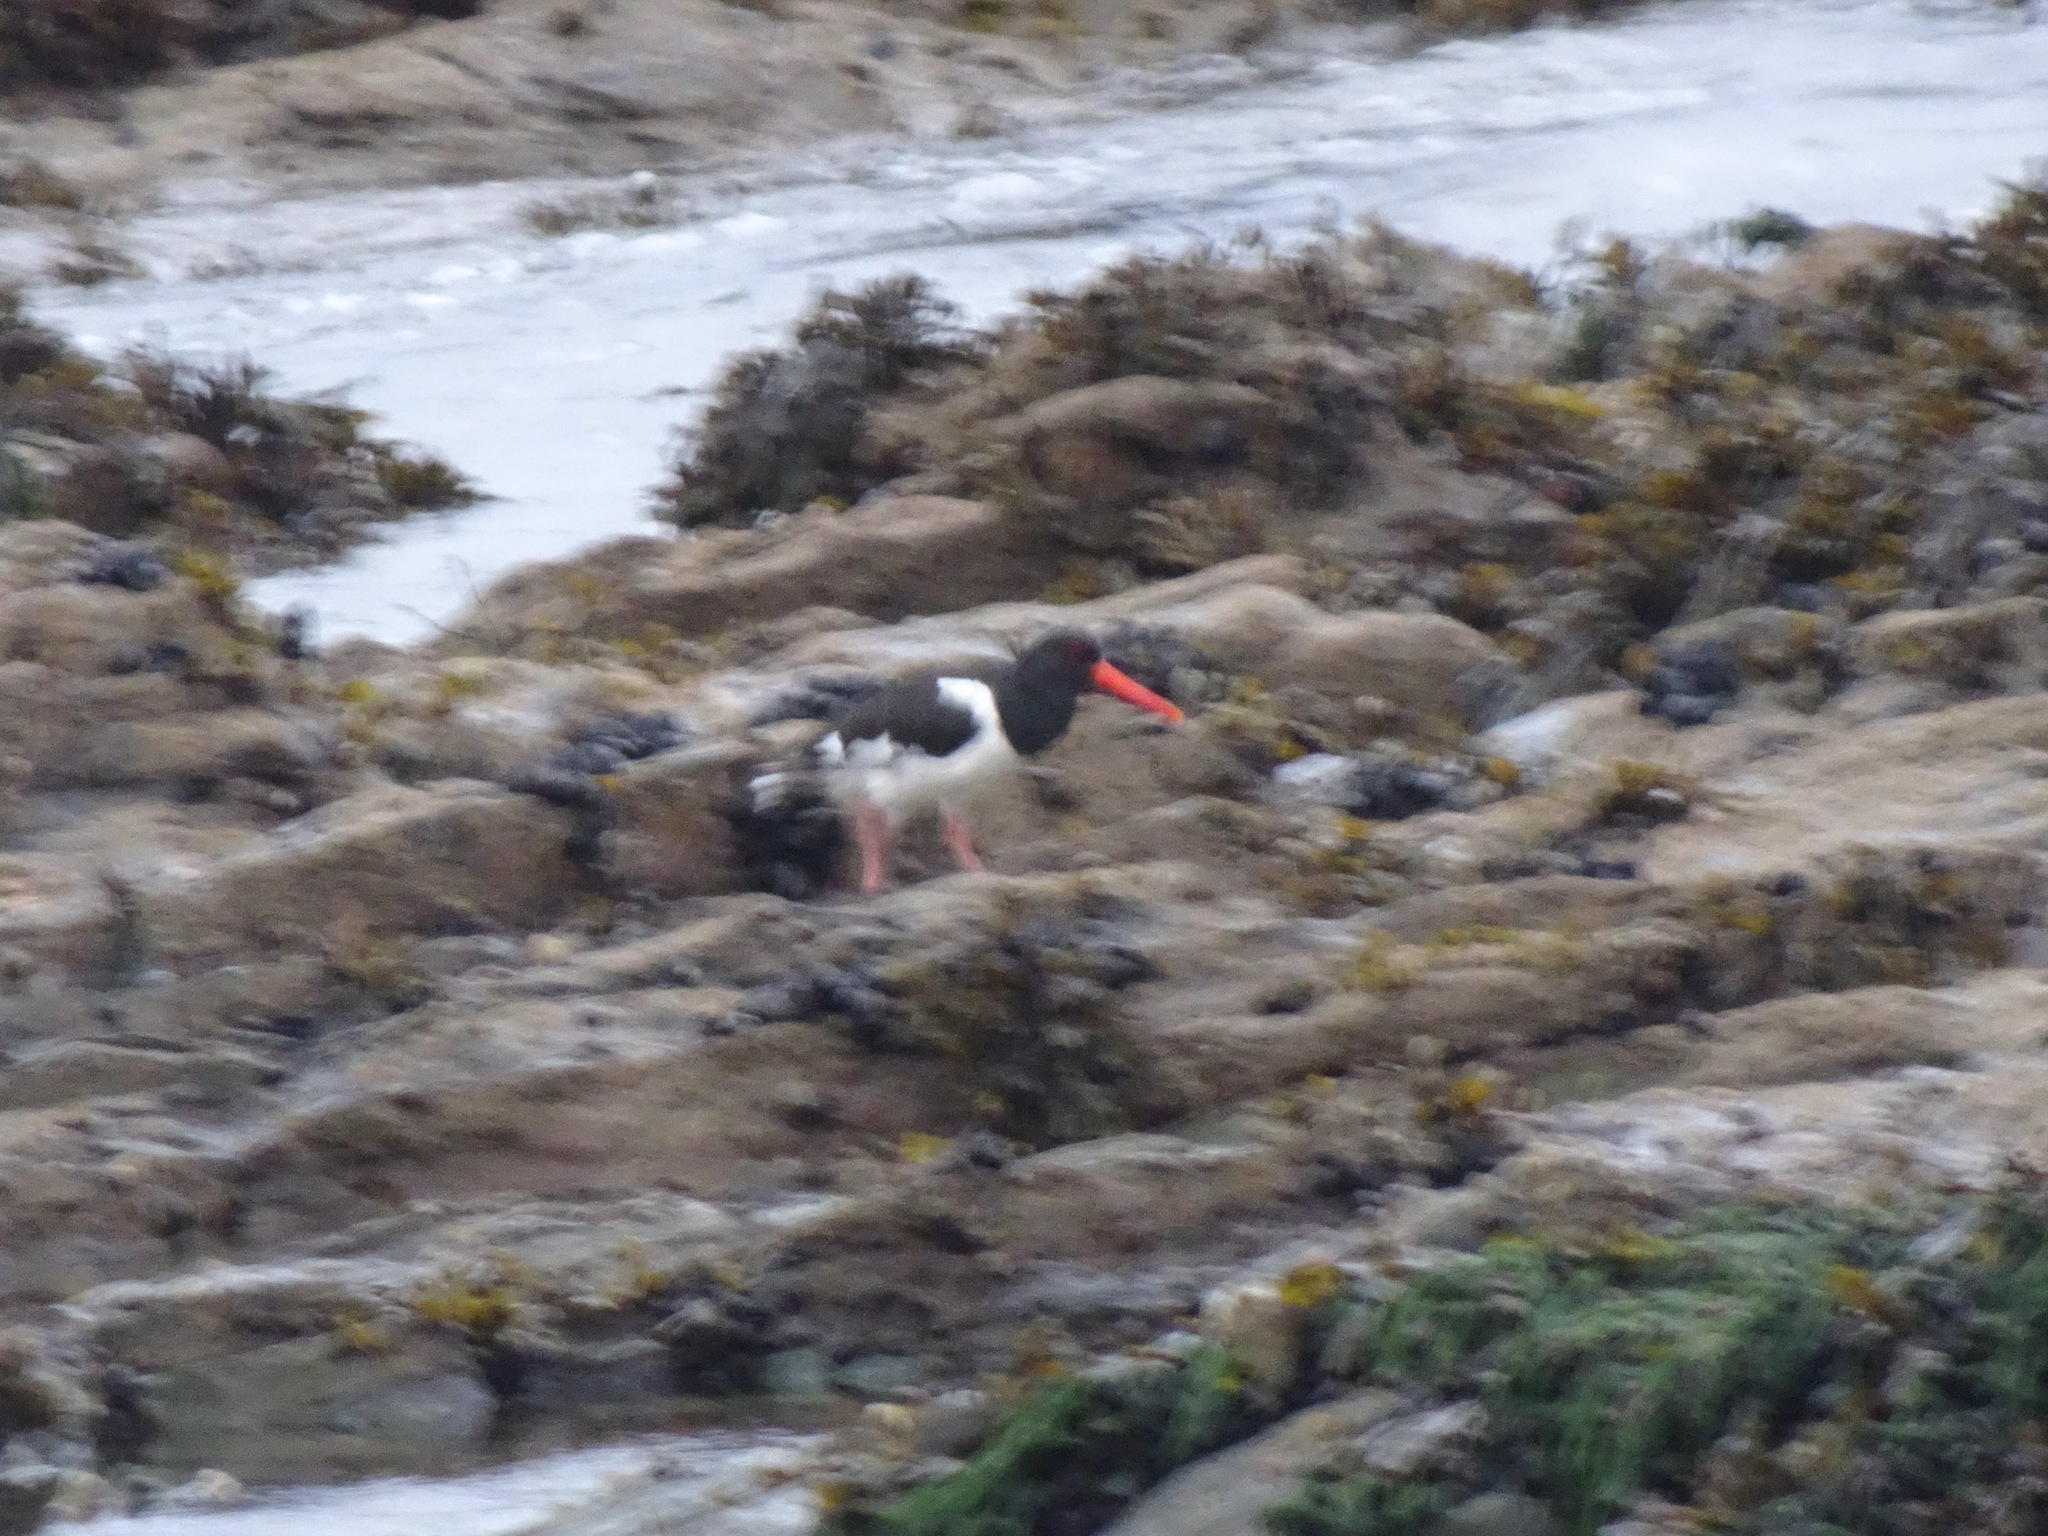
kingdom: Animalia
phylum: Chordata
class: Aves
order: Charadriiformes
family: Haematopodidae
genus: Haematopus
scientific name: Haematopus ostralegus
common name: Eurasian oystercatcher
